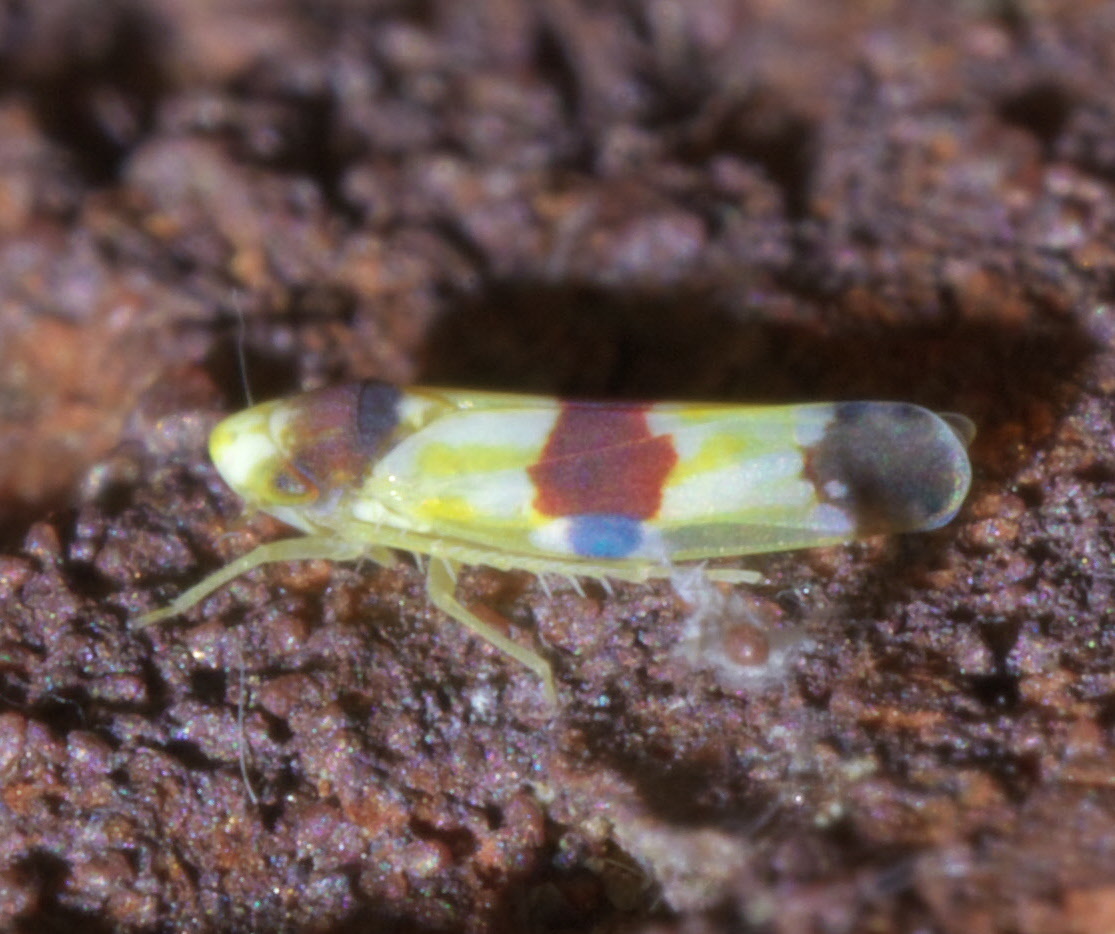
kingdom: Animalia
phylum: Arthropoda
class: Insecta
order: Hemiptera
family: Cicadellidae
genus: Erythroneura
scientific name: Erythroneura diva
